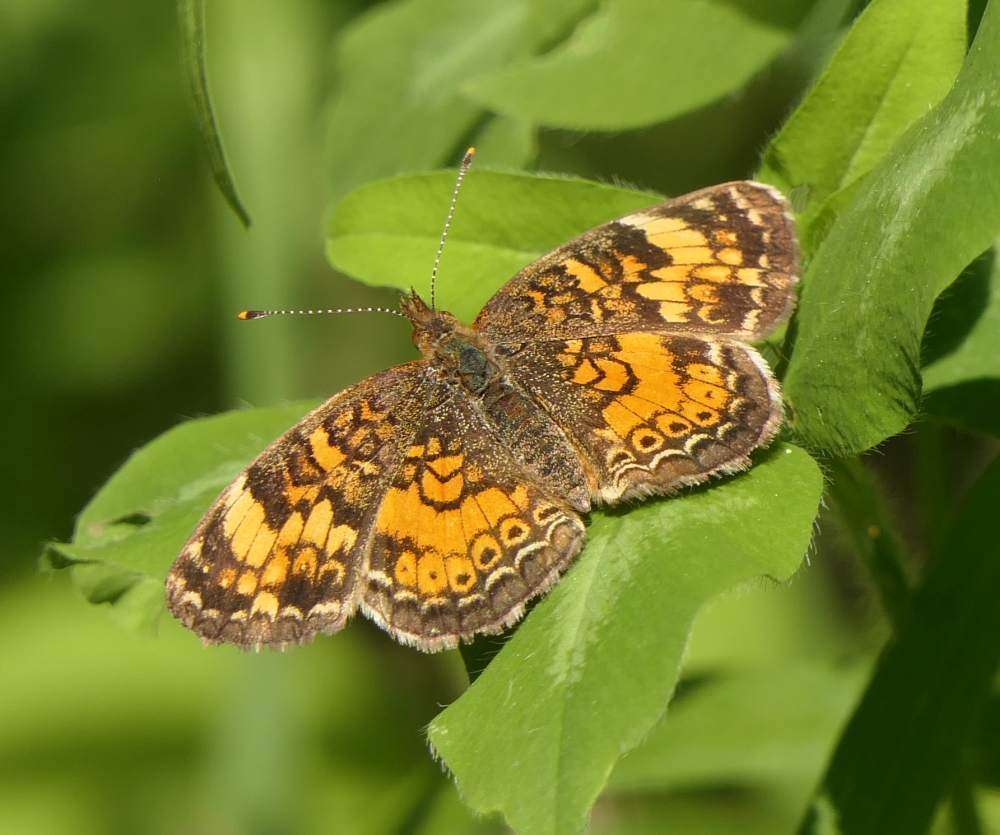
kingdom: Animalia
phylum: Arthropoda
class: Insecta
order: Lepidoptera
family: Nymphalidae
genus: Phyciodes
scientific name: Phyciodes tharos
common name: Pearl crescent
